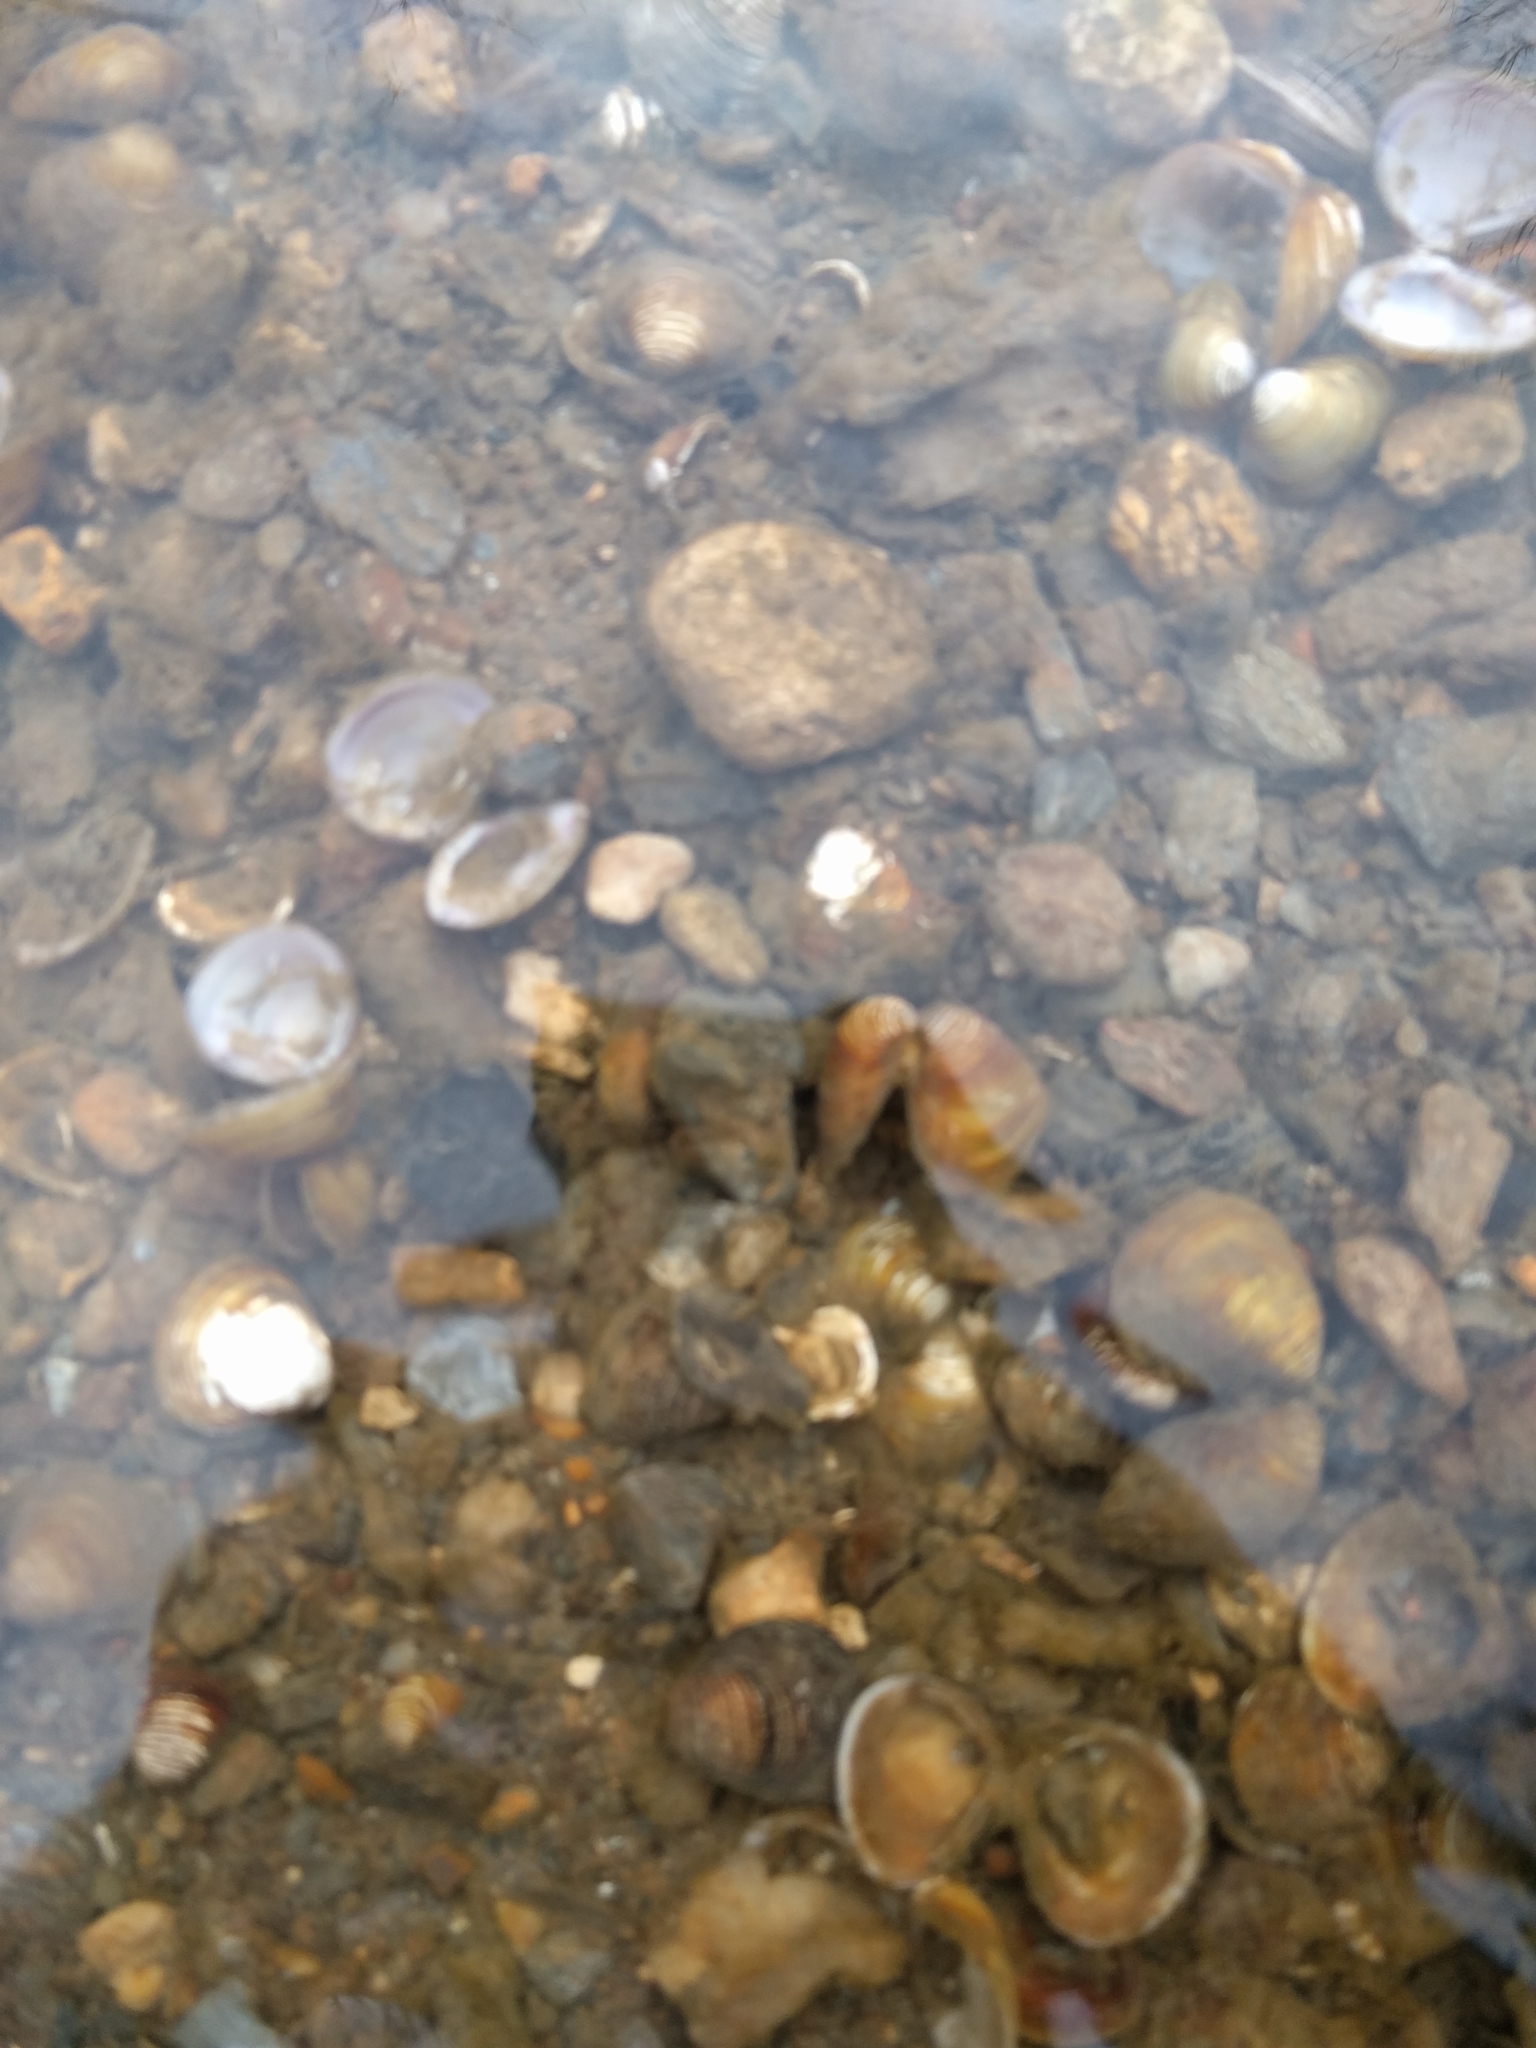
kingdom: Animalia
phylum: Mollusca
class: Bivalvia
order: Venerida
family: Cyrenidae
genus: Corbicula
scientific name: Corbicula fluminea
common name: Asian clam
